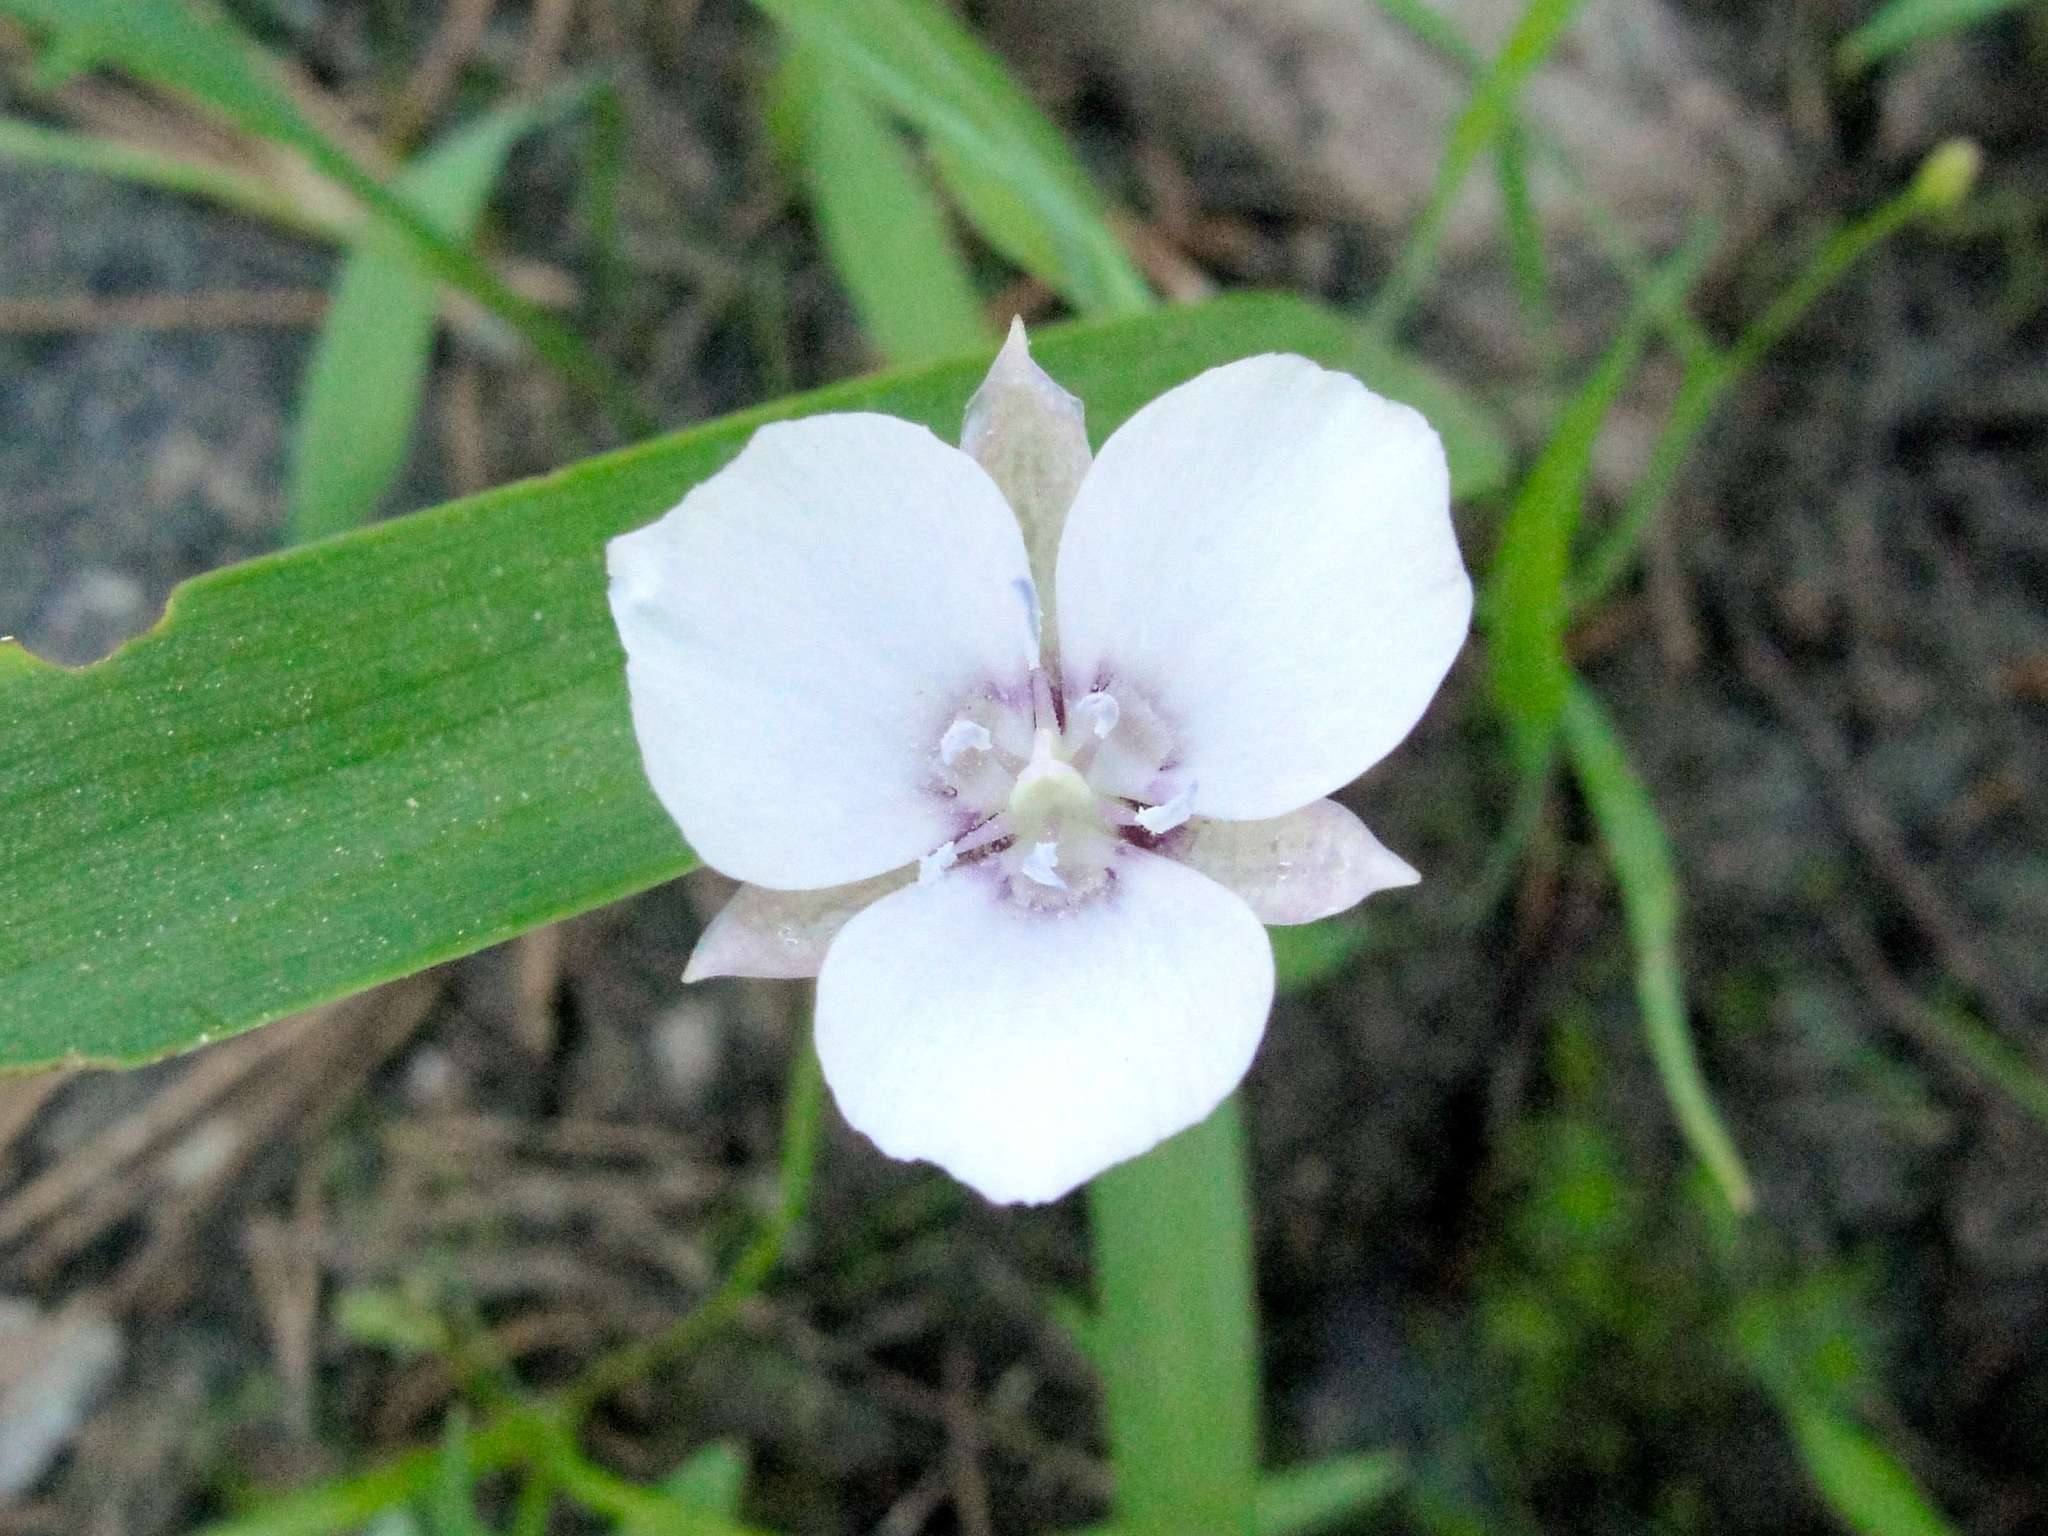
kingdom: Plantae
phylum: Tracheophyta
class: Liliopsida
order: Liliales
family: Liliaceae
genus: Calochortus
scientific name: Calochortus minimus
